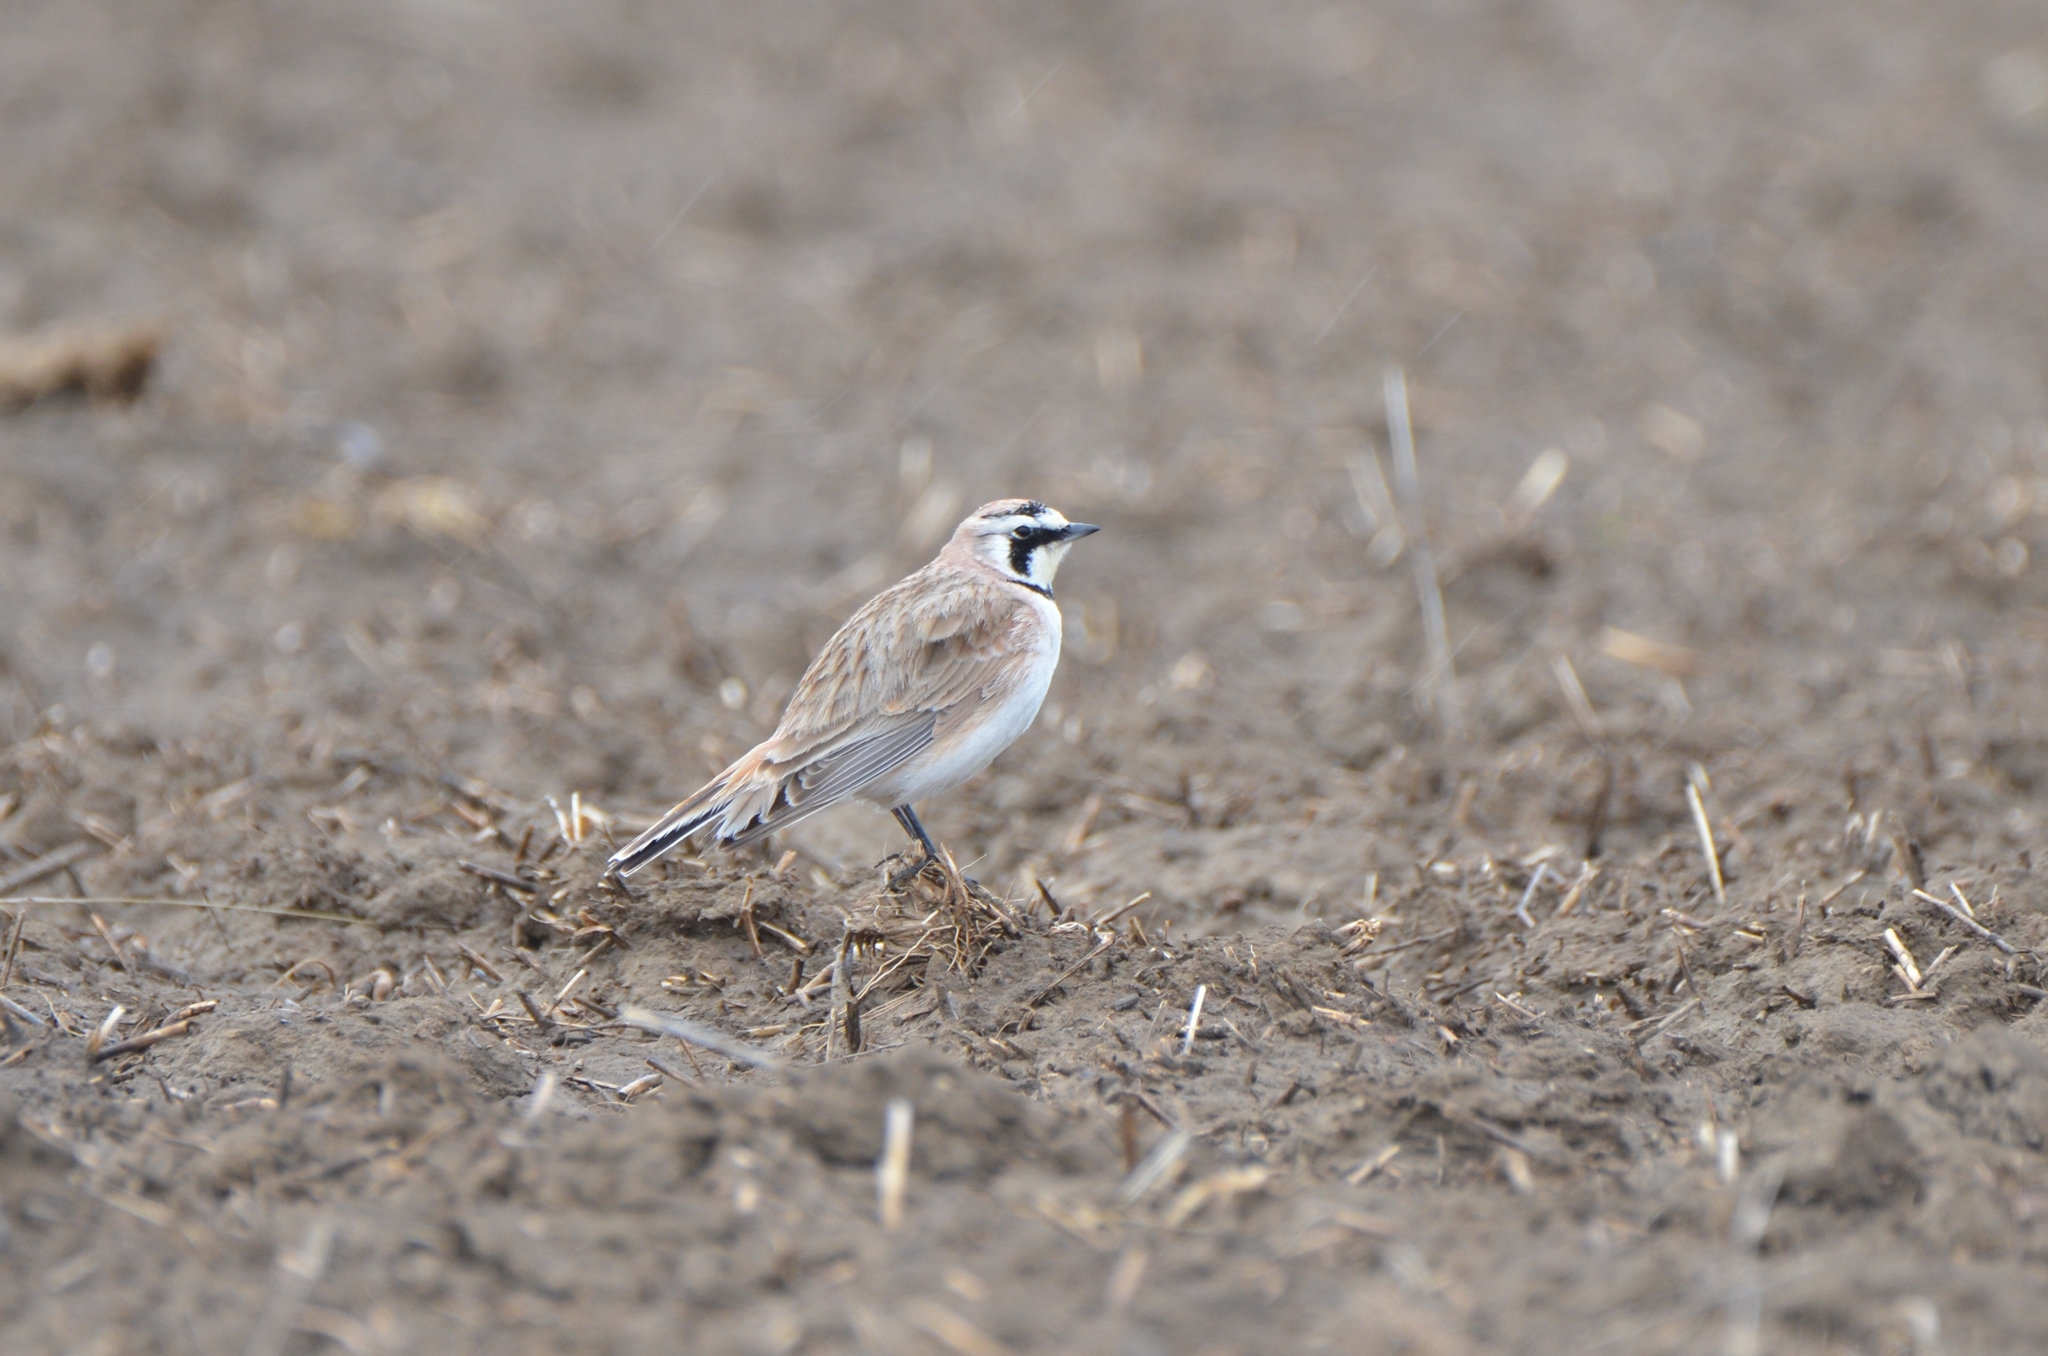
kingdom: Animalia
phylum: Chordata
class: Aves
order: Passeriformes
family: Alaudidae
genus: Eremophila
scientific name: Eremophila alpestris
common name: Horned lark
